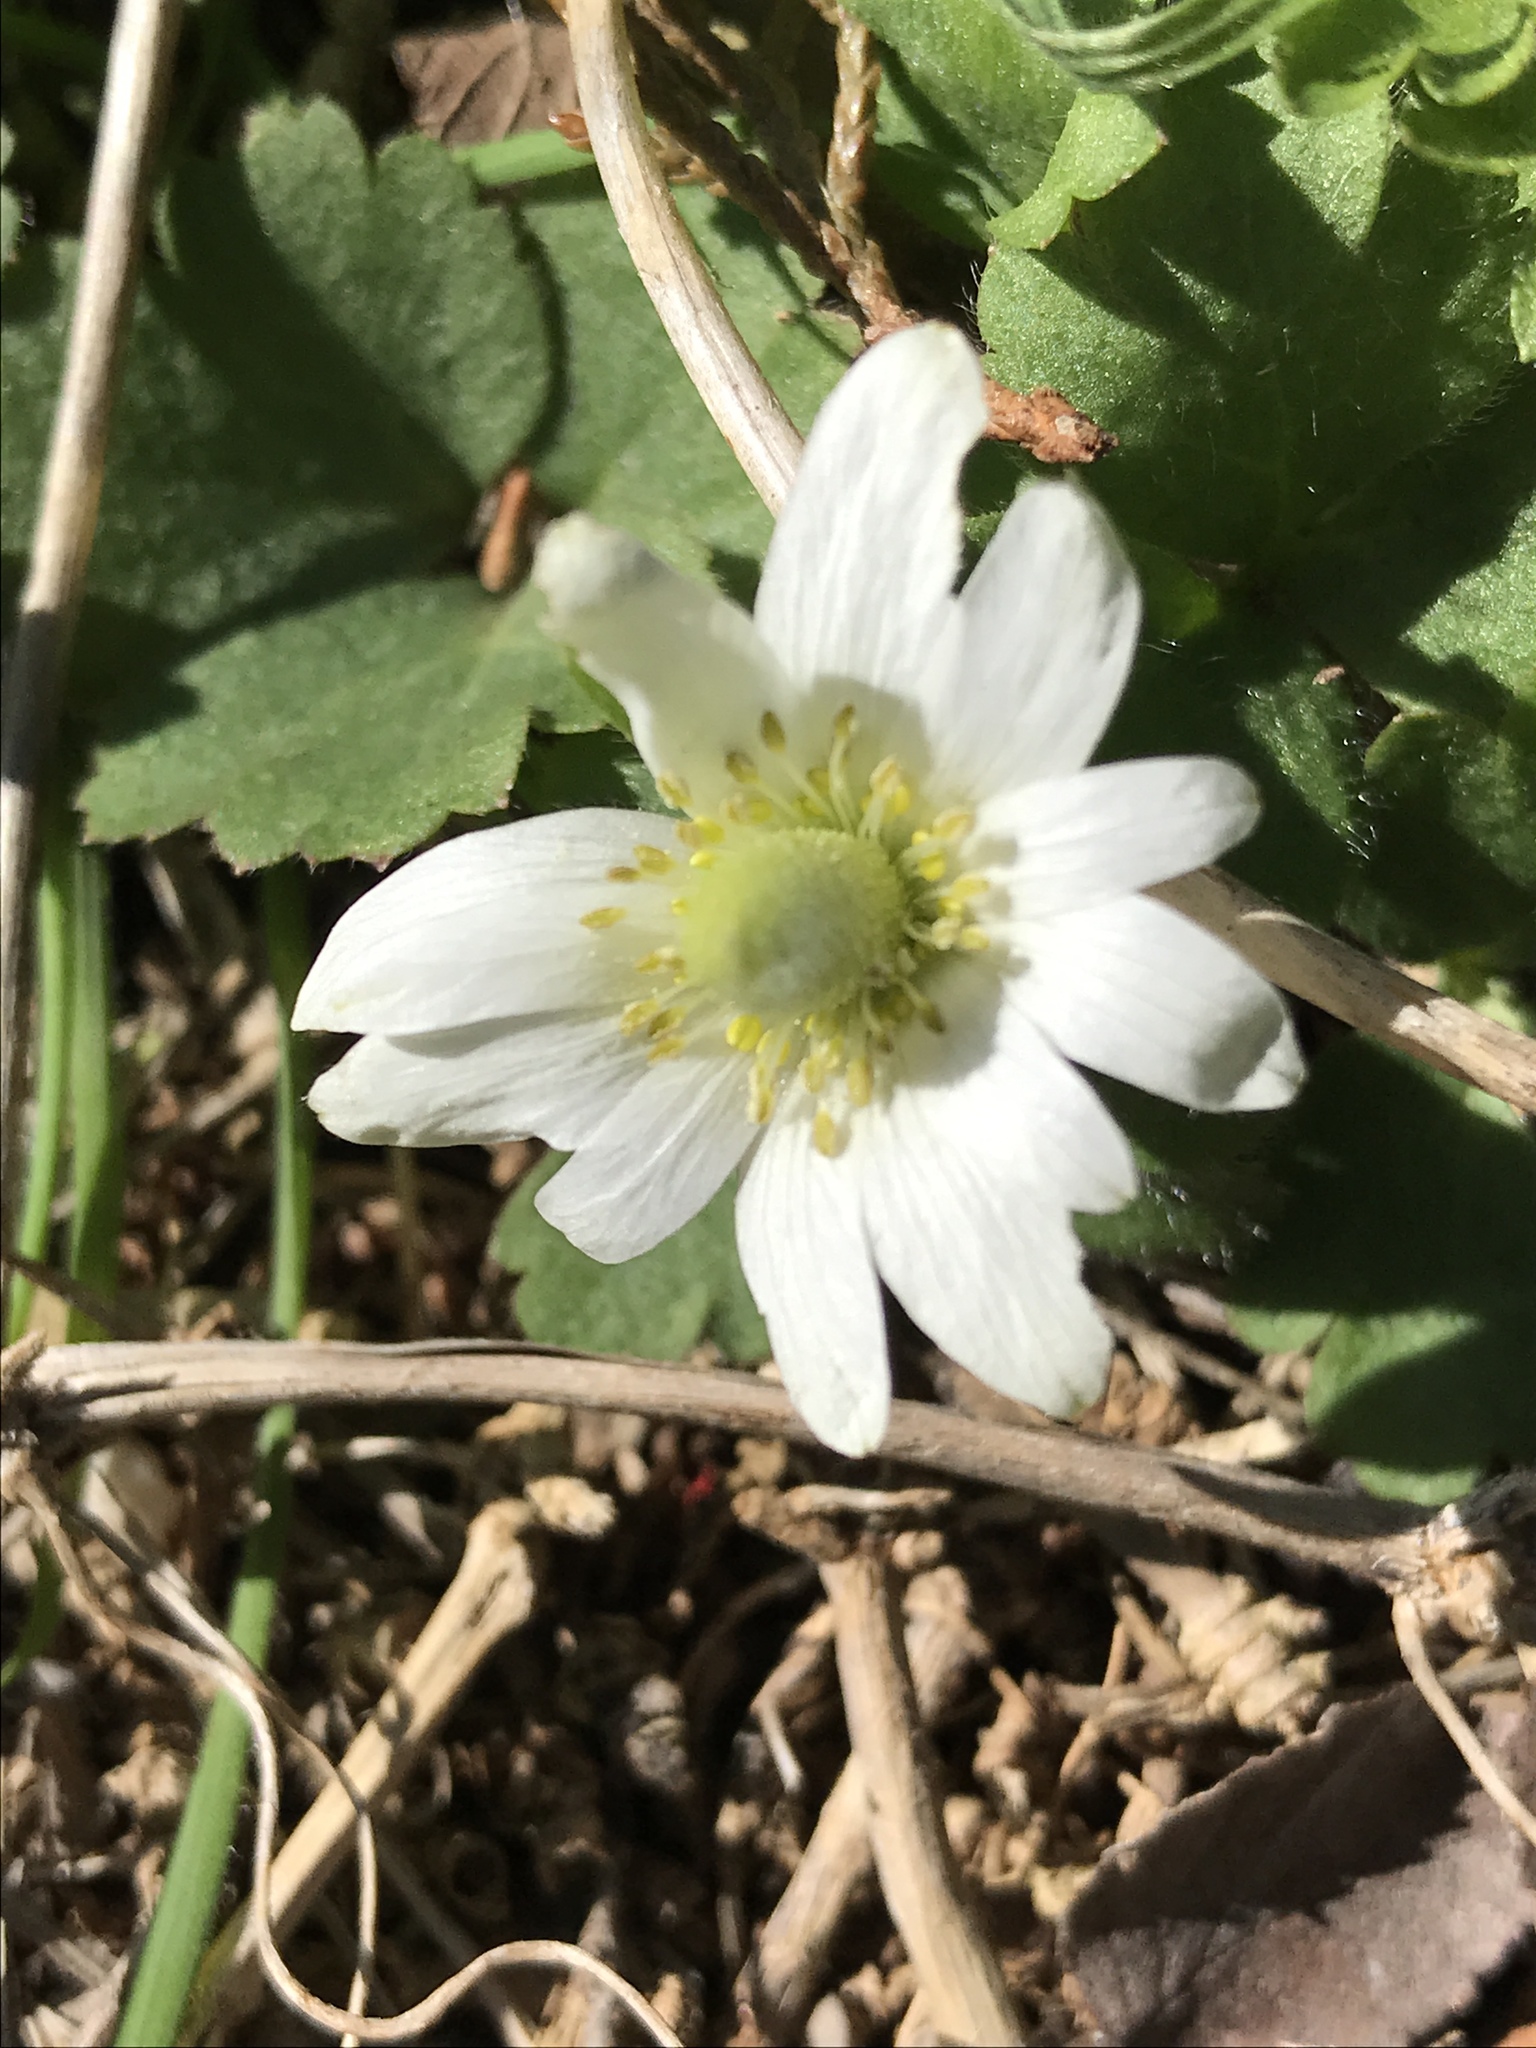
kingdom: Plantae
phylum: Tracheophyta
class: Magnoliopsida
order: Ranunculales
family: Ranunculaceae
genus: Anemone
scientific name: Anemone berlandieri
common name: Ten-petal anemone
